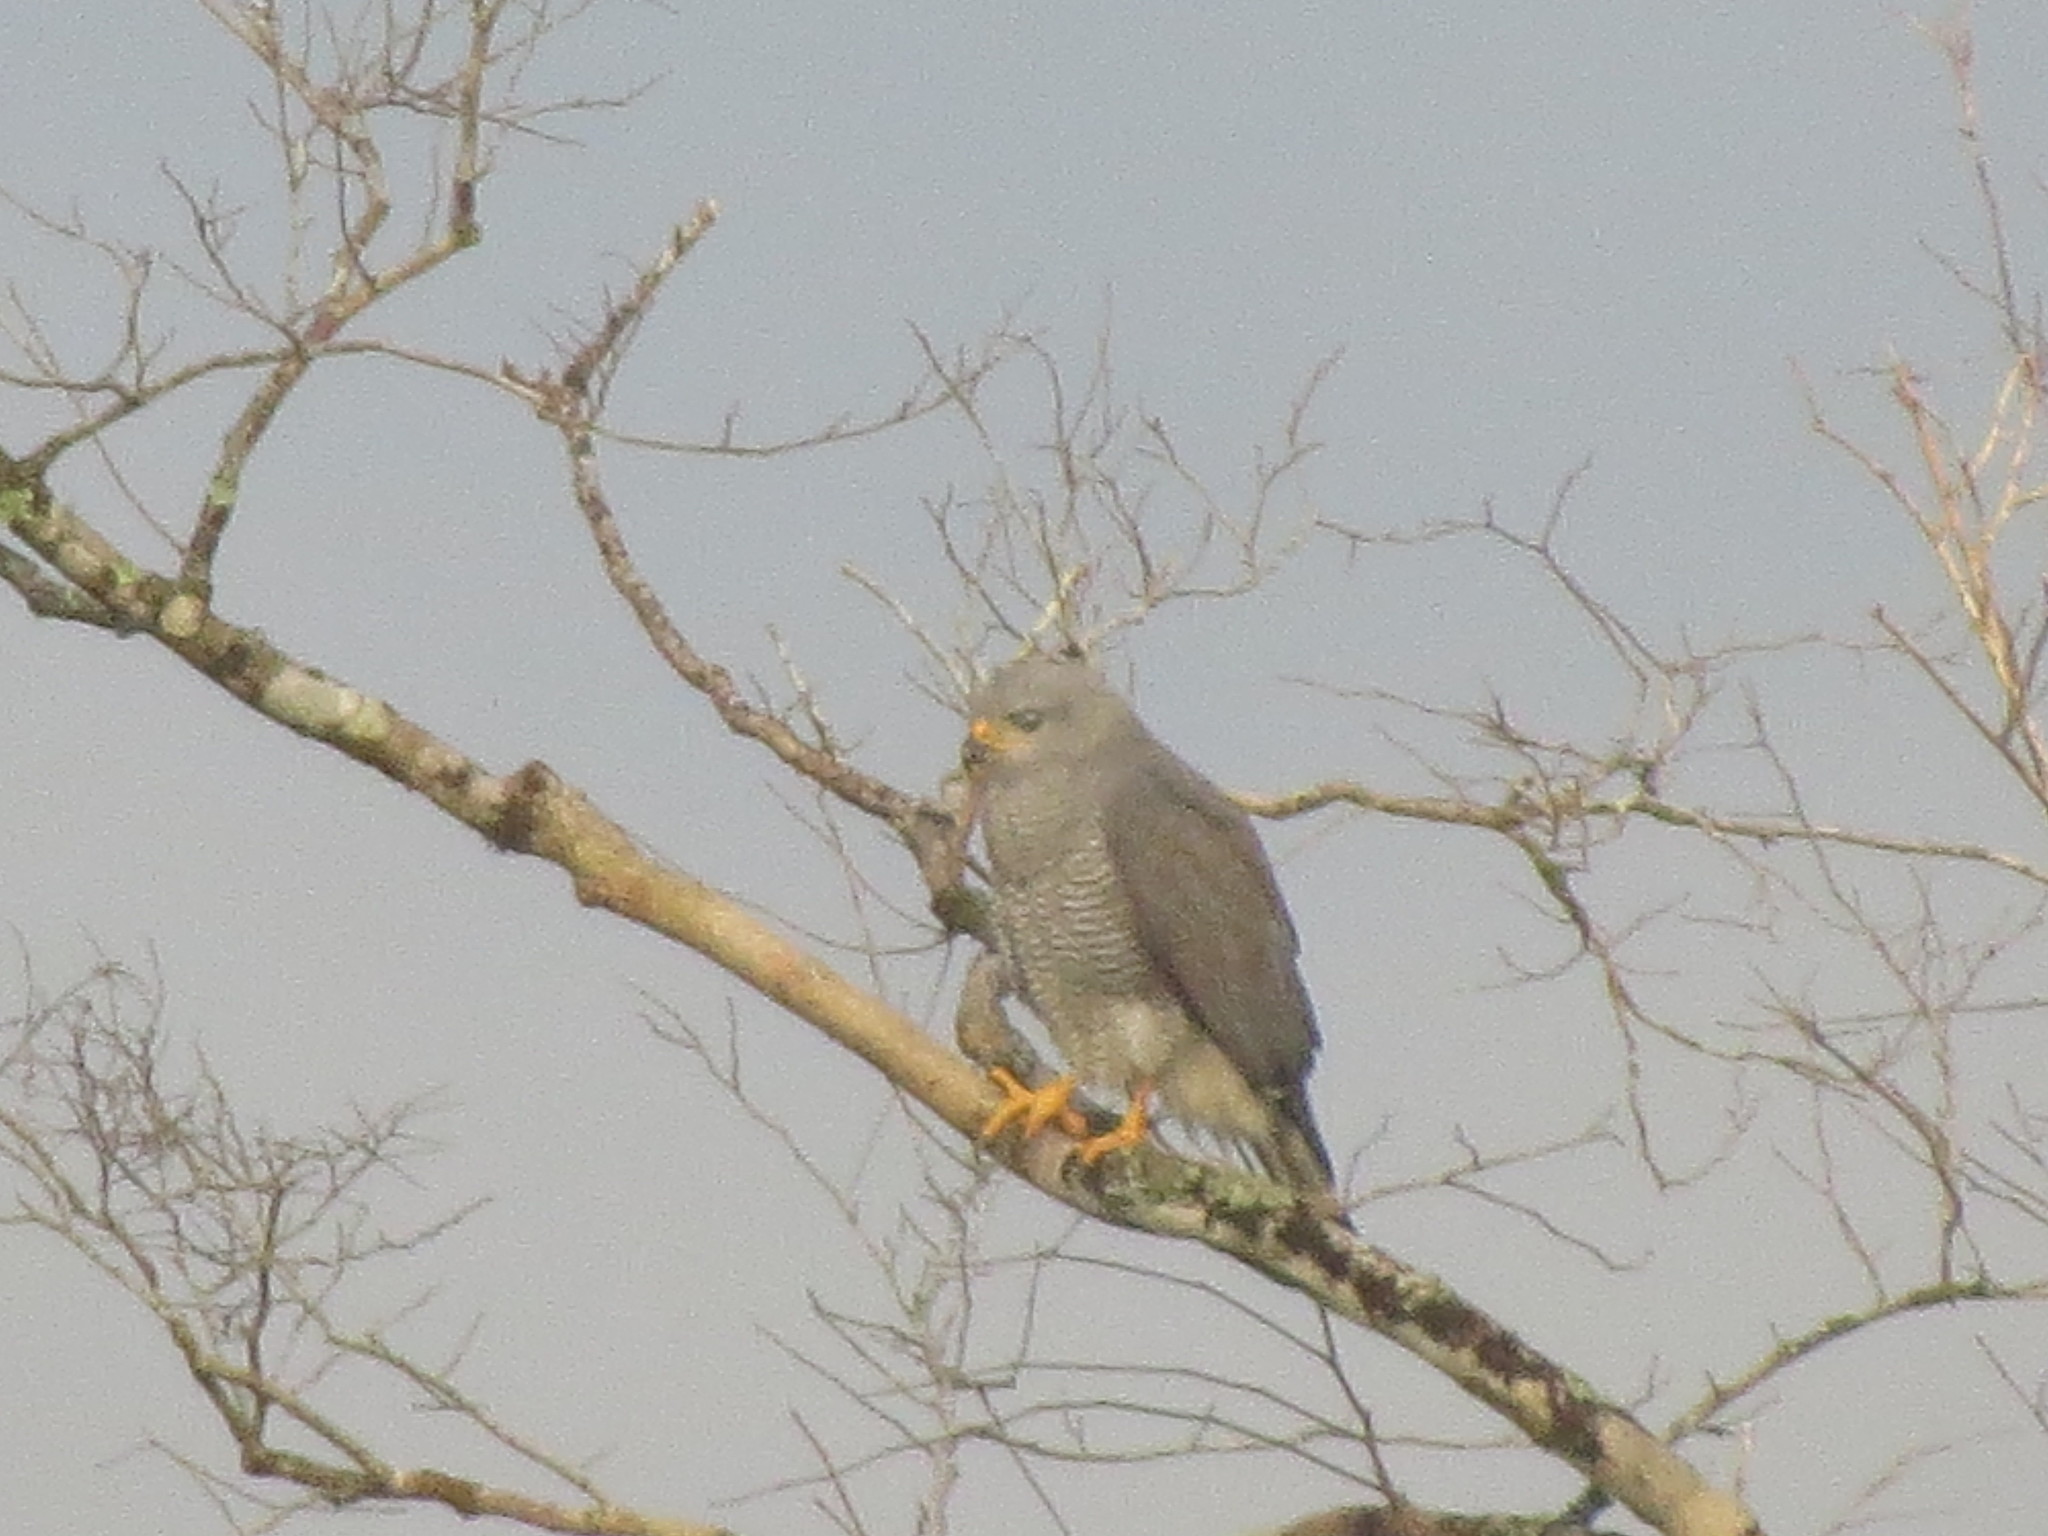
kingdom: Animalia
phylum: Chordata
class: Aves
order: Accipitriformes
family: Accipitridae
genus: Buteo
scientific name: Buteo nitidus
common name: Grey-lined hawk
